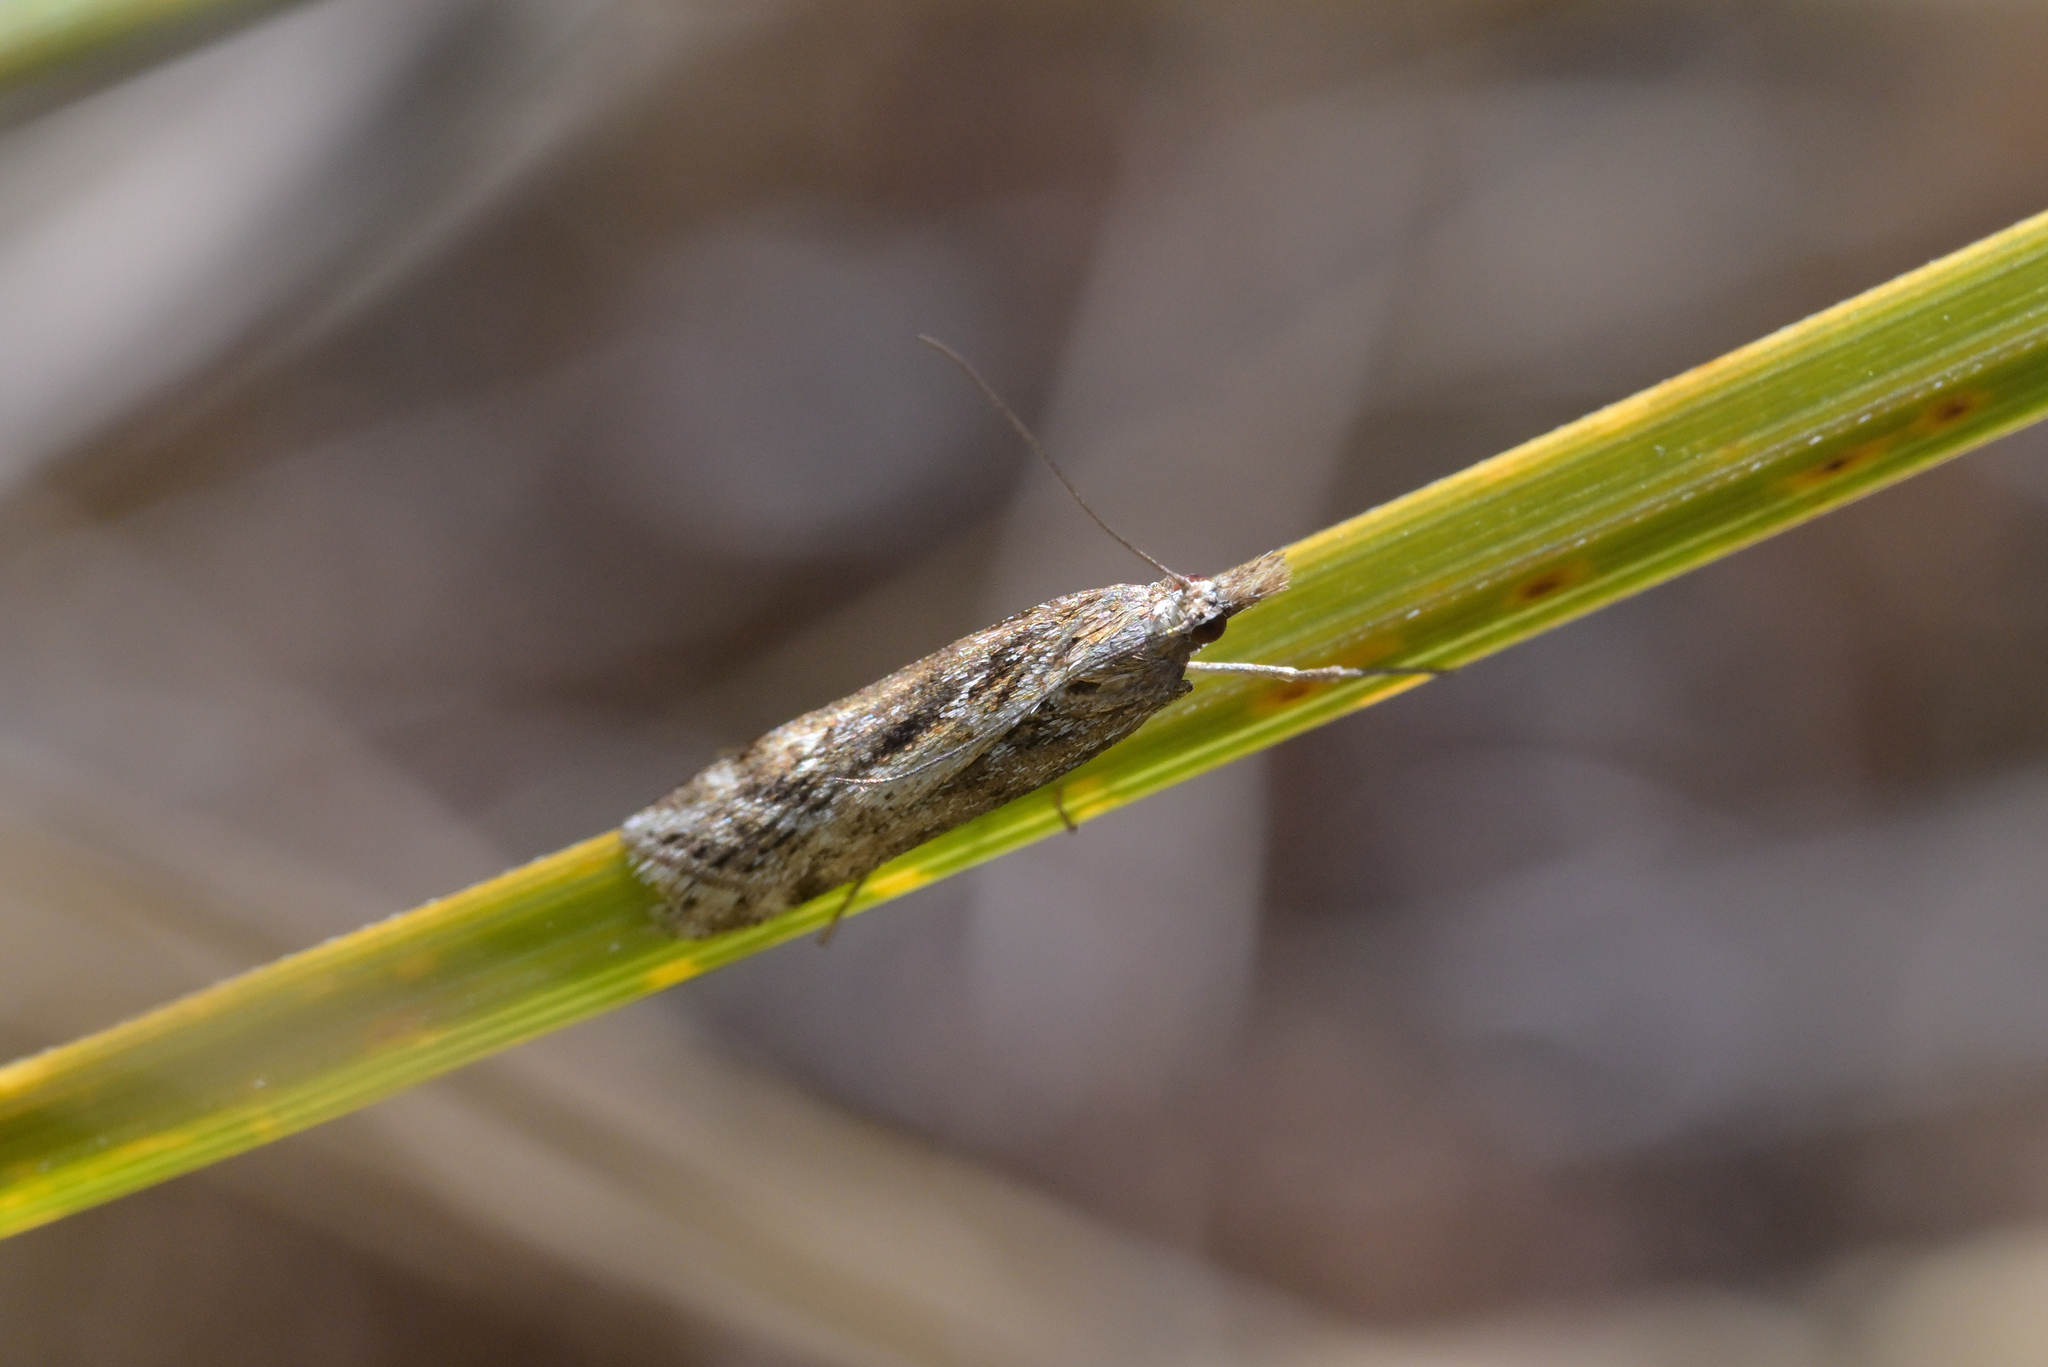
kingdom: Animalia
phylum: Arthropoda
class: Insecta
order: Lepidoptera
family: Crambidae
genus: Scoparia
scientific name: Scoparia exilis
